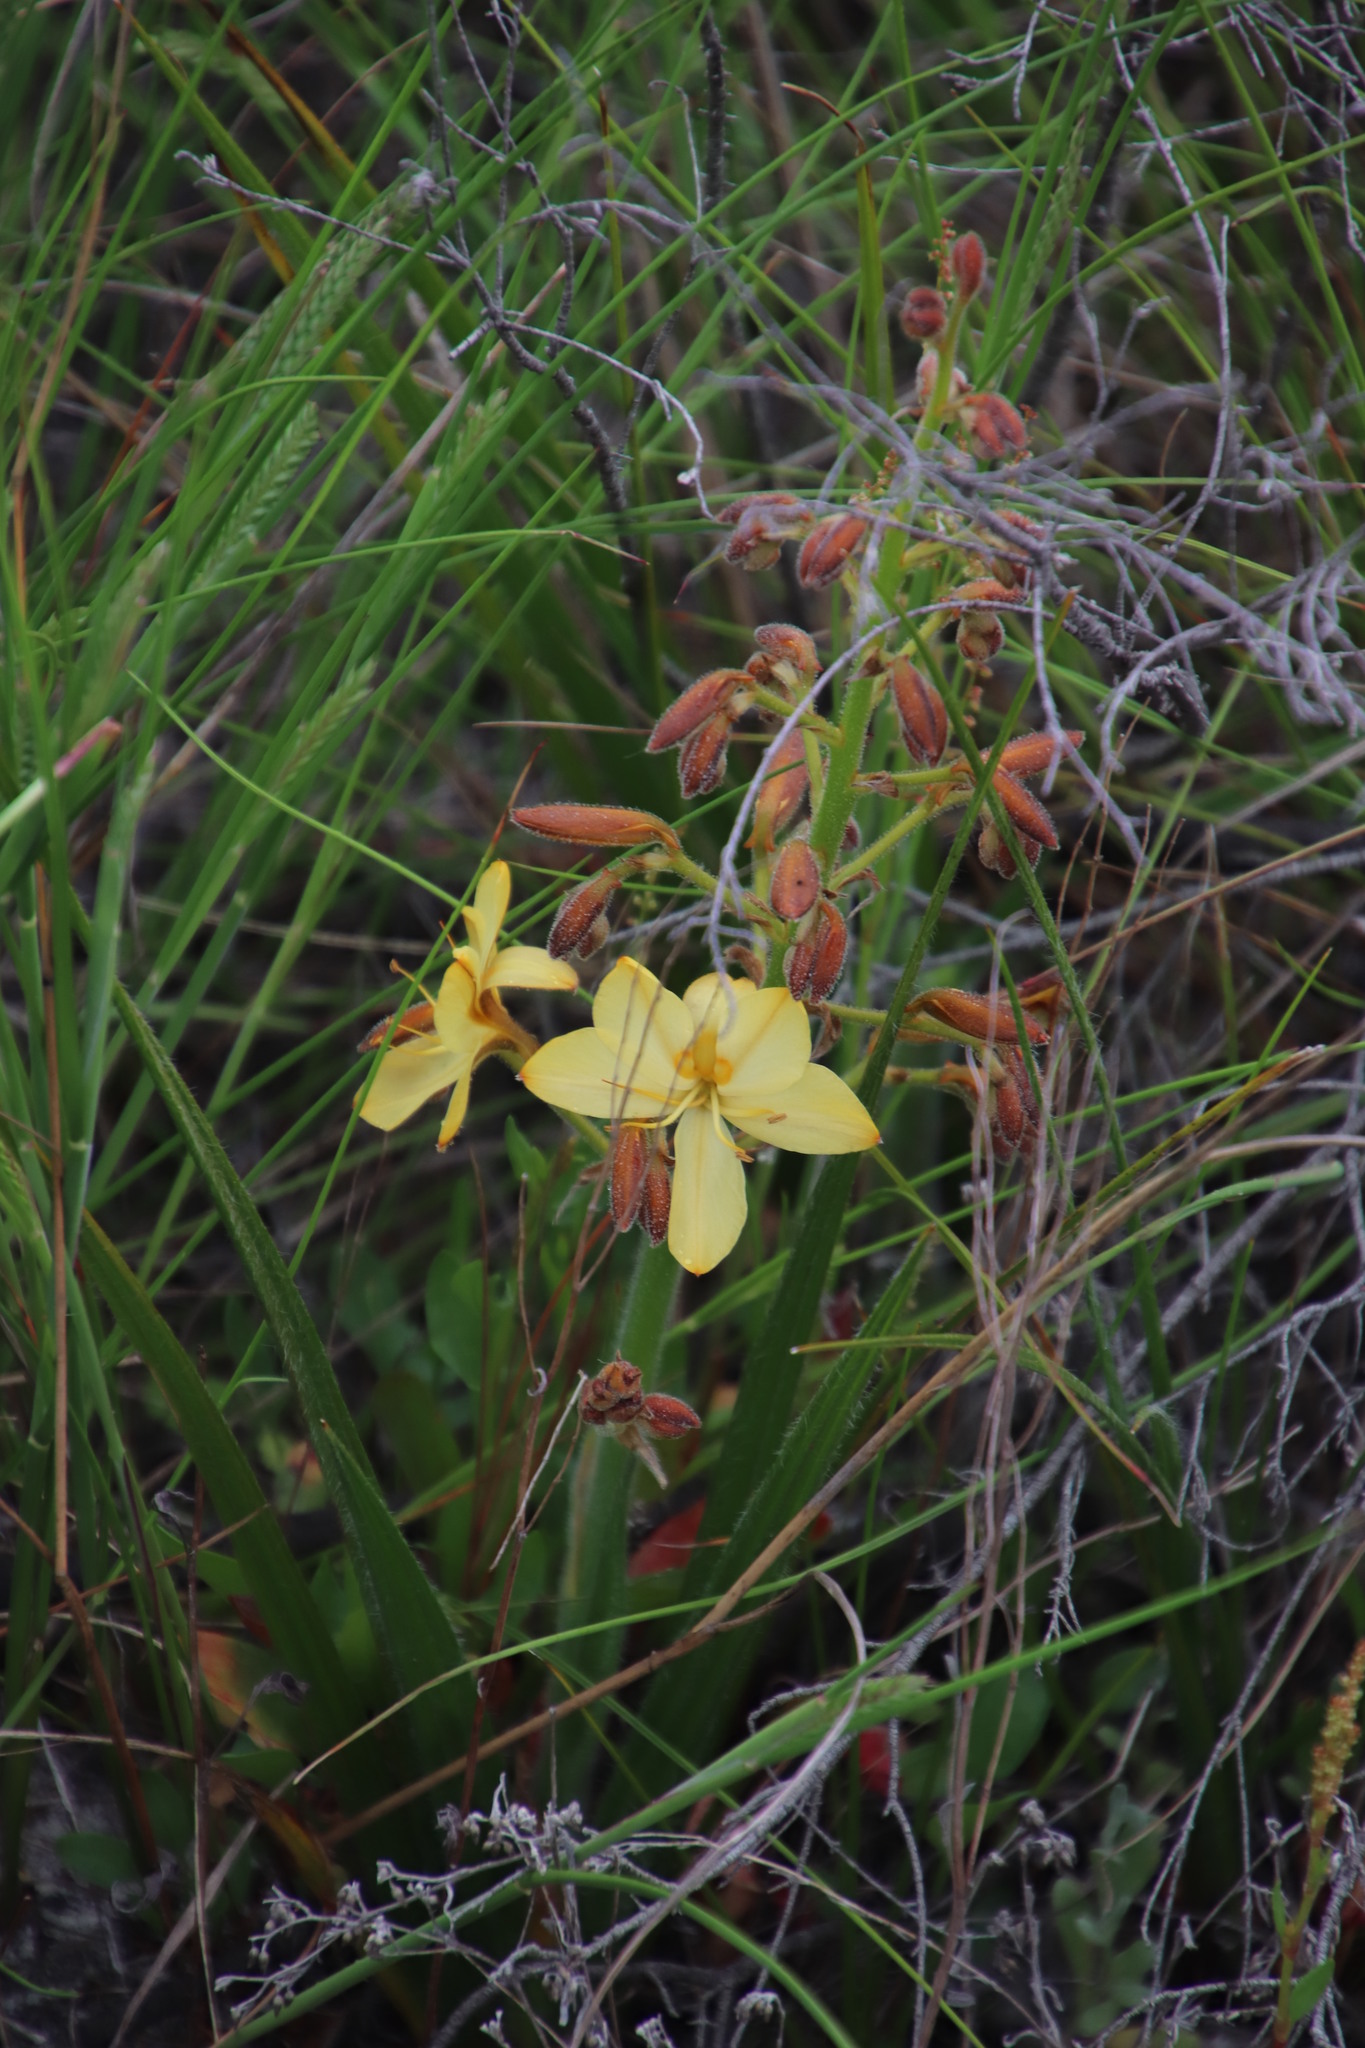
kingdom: Plantae
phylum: Tracheophyta
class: Liliopsida
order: Commelinales
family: Haemodoraceae
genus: Wachendorfia
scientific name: Wachendorfia paniculata
